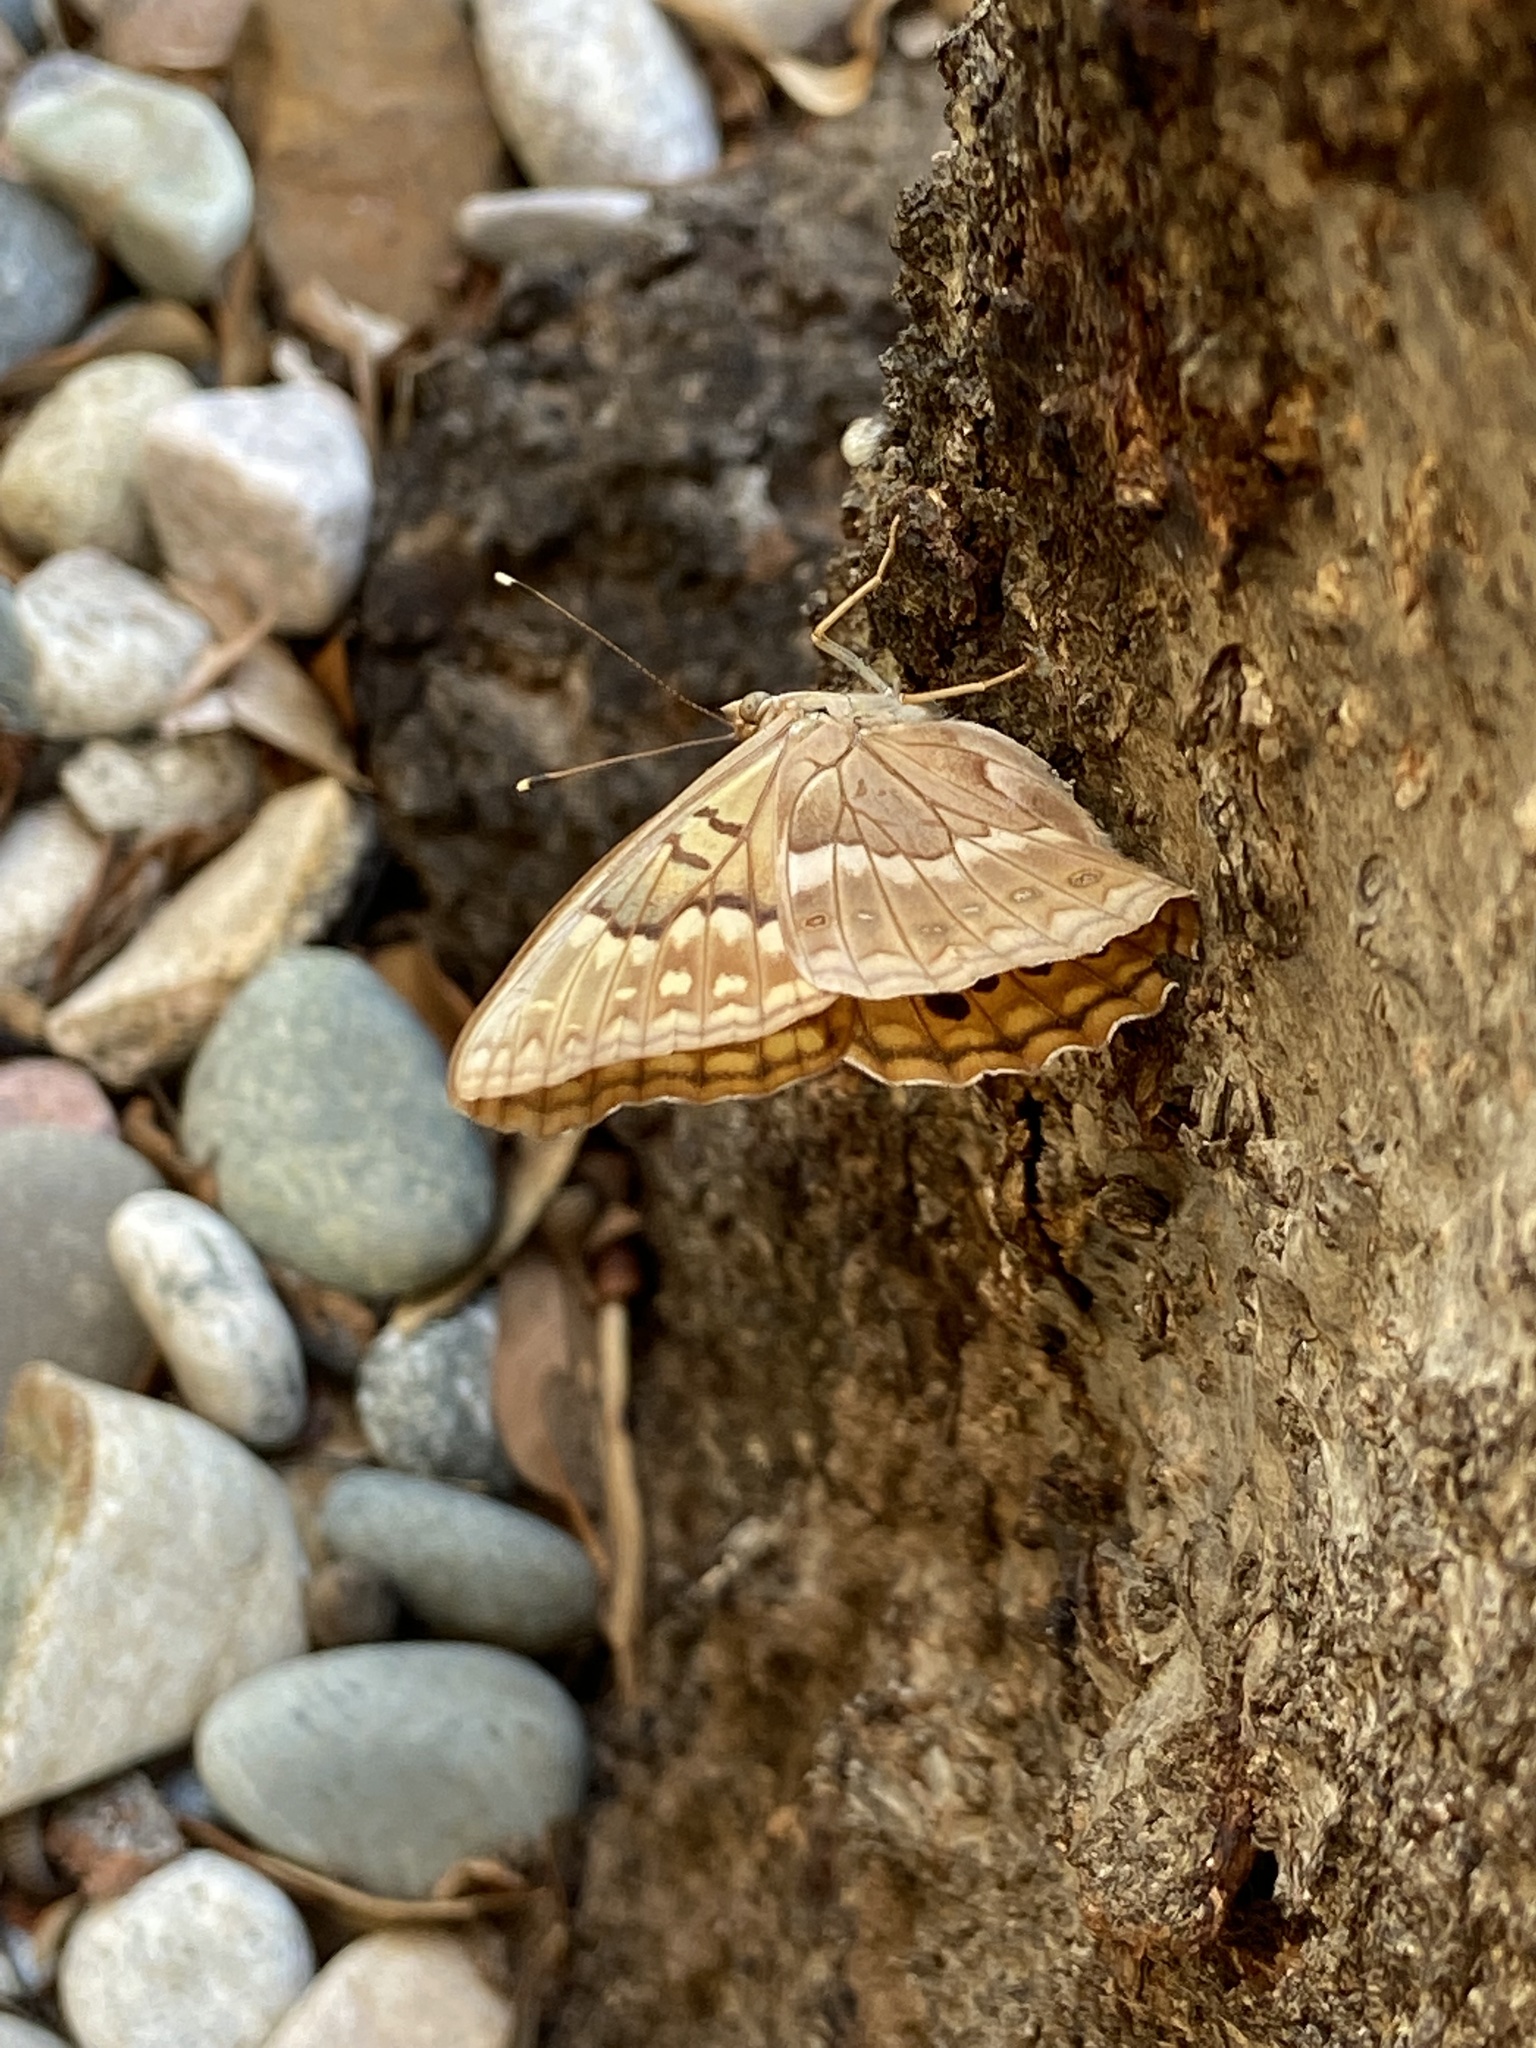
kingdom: Animalia
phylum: Arthropoda
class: Insecta
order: Lepidoptera
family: Nymphalidae
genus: Asterocampa
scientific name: Asterocampa clyton
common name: Tawny emperor
